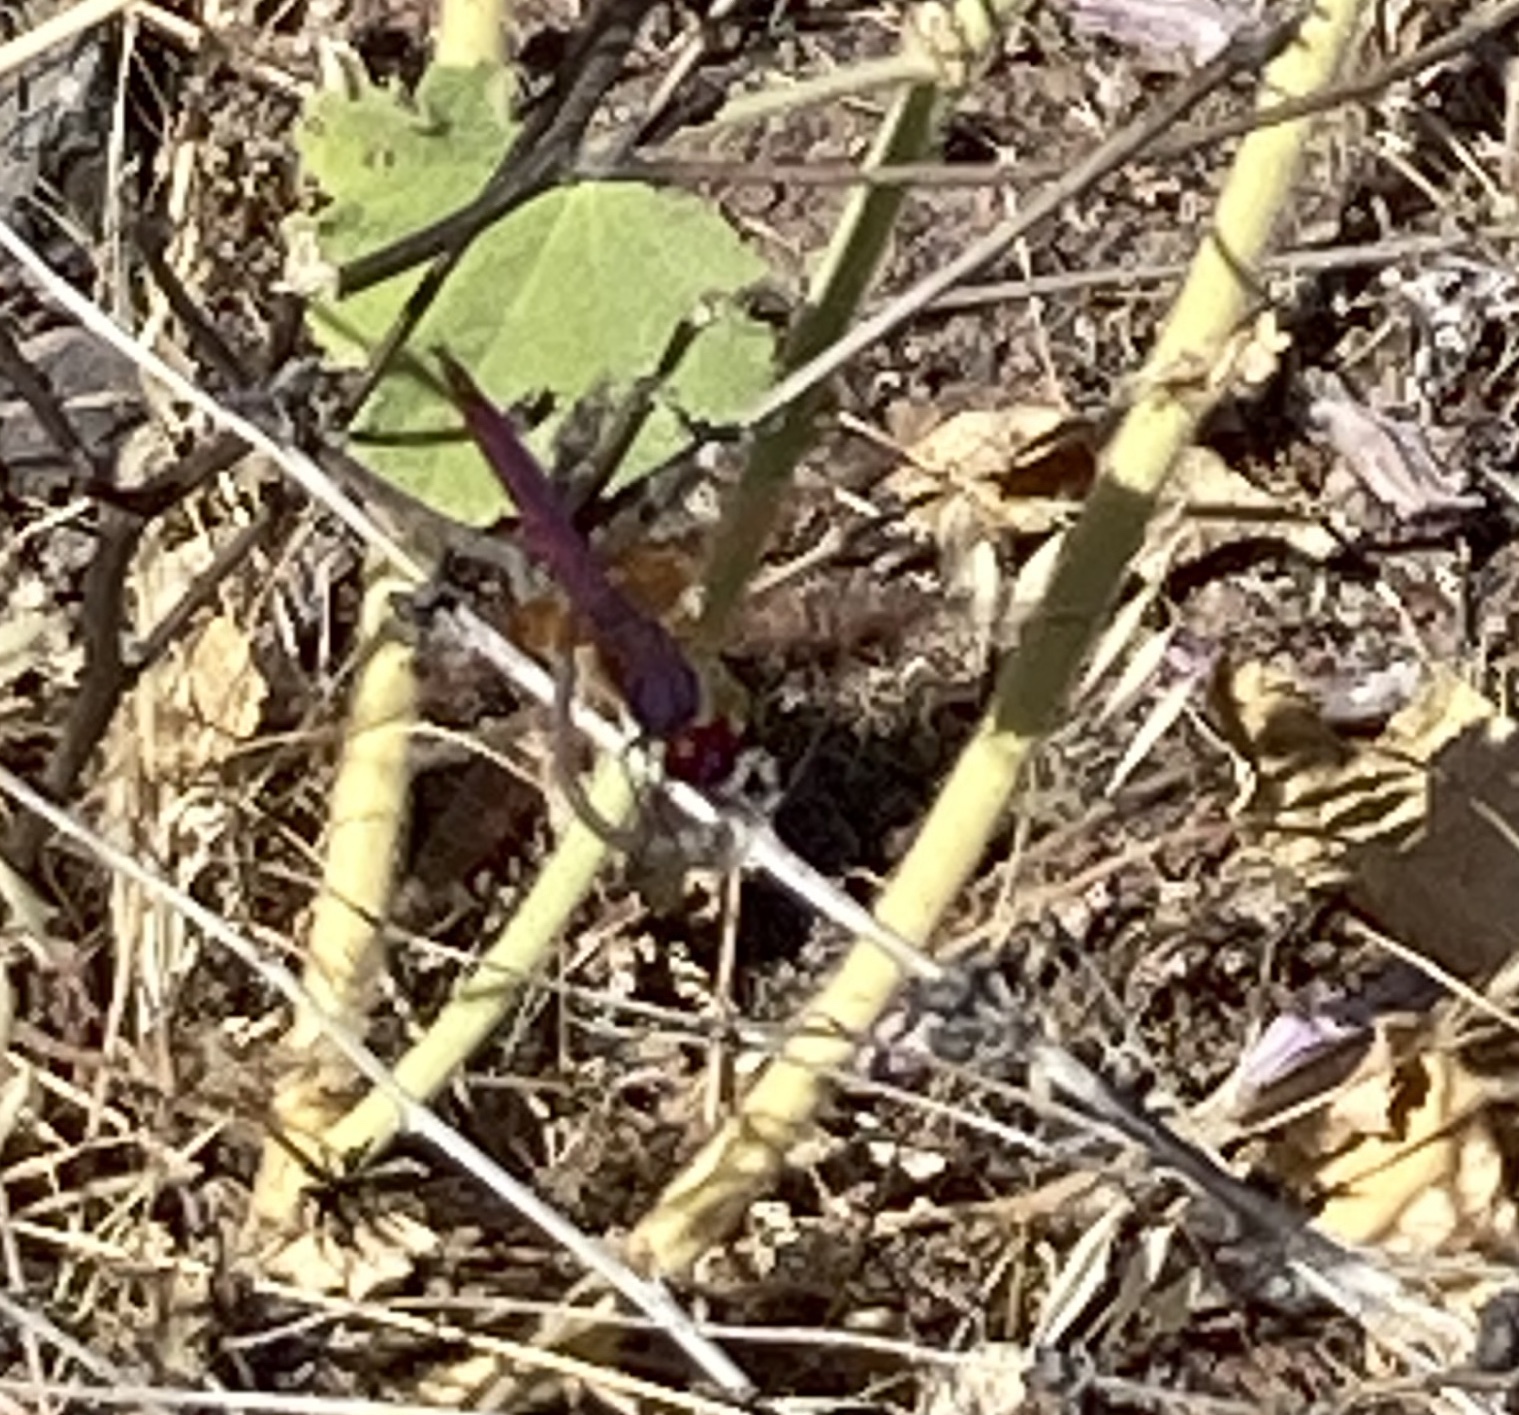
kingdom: Animalia
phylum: Arthropoda
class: Insecta
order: Odonata
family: Libellulidae
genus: Trithemis
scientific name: Trithemis annulata
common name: Violet dropwing
